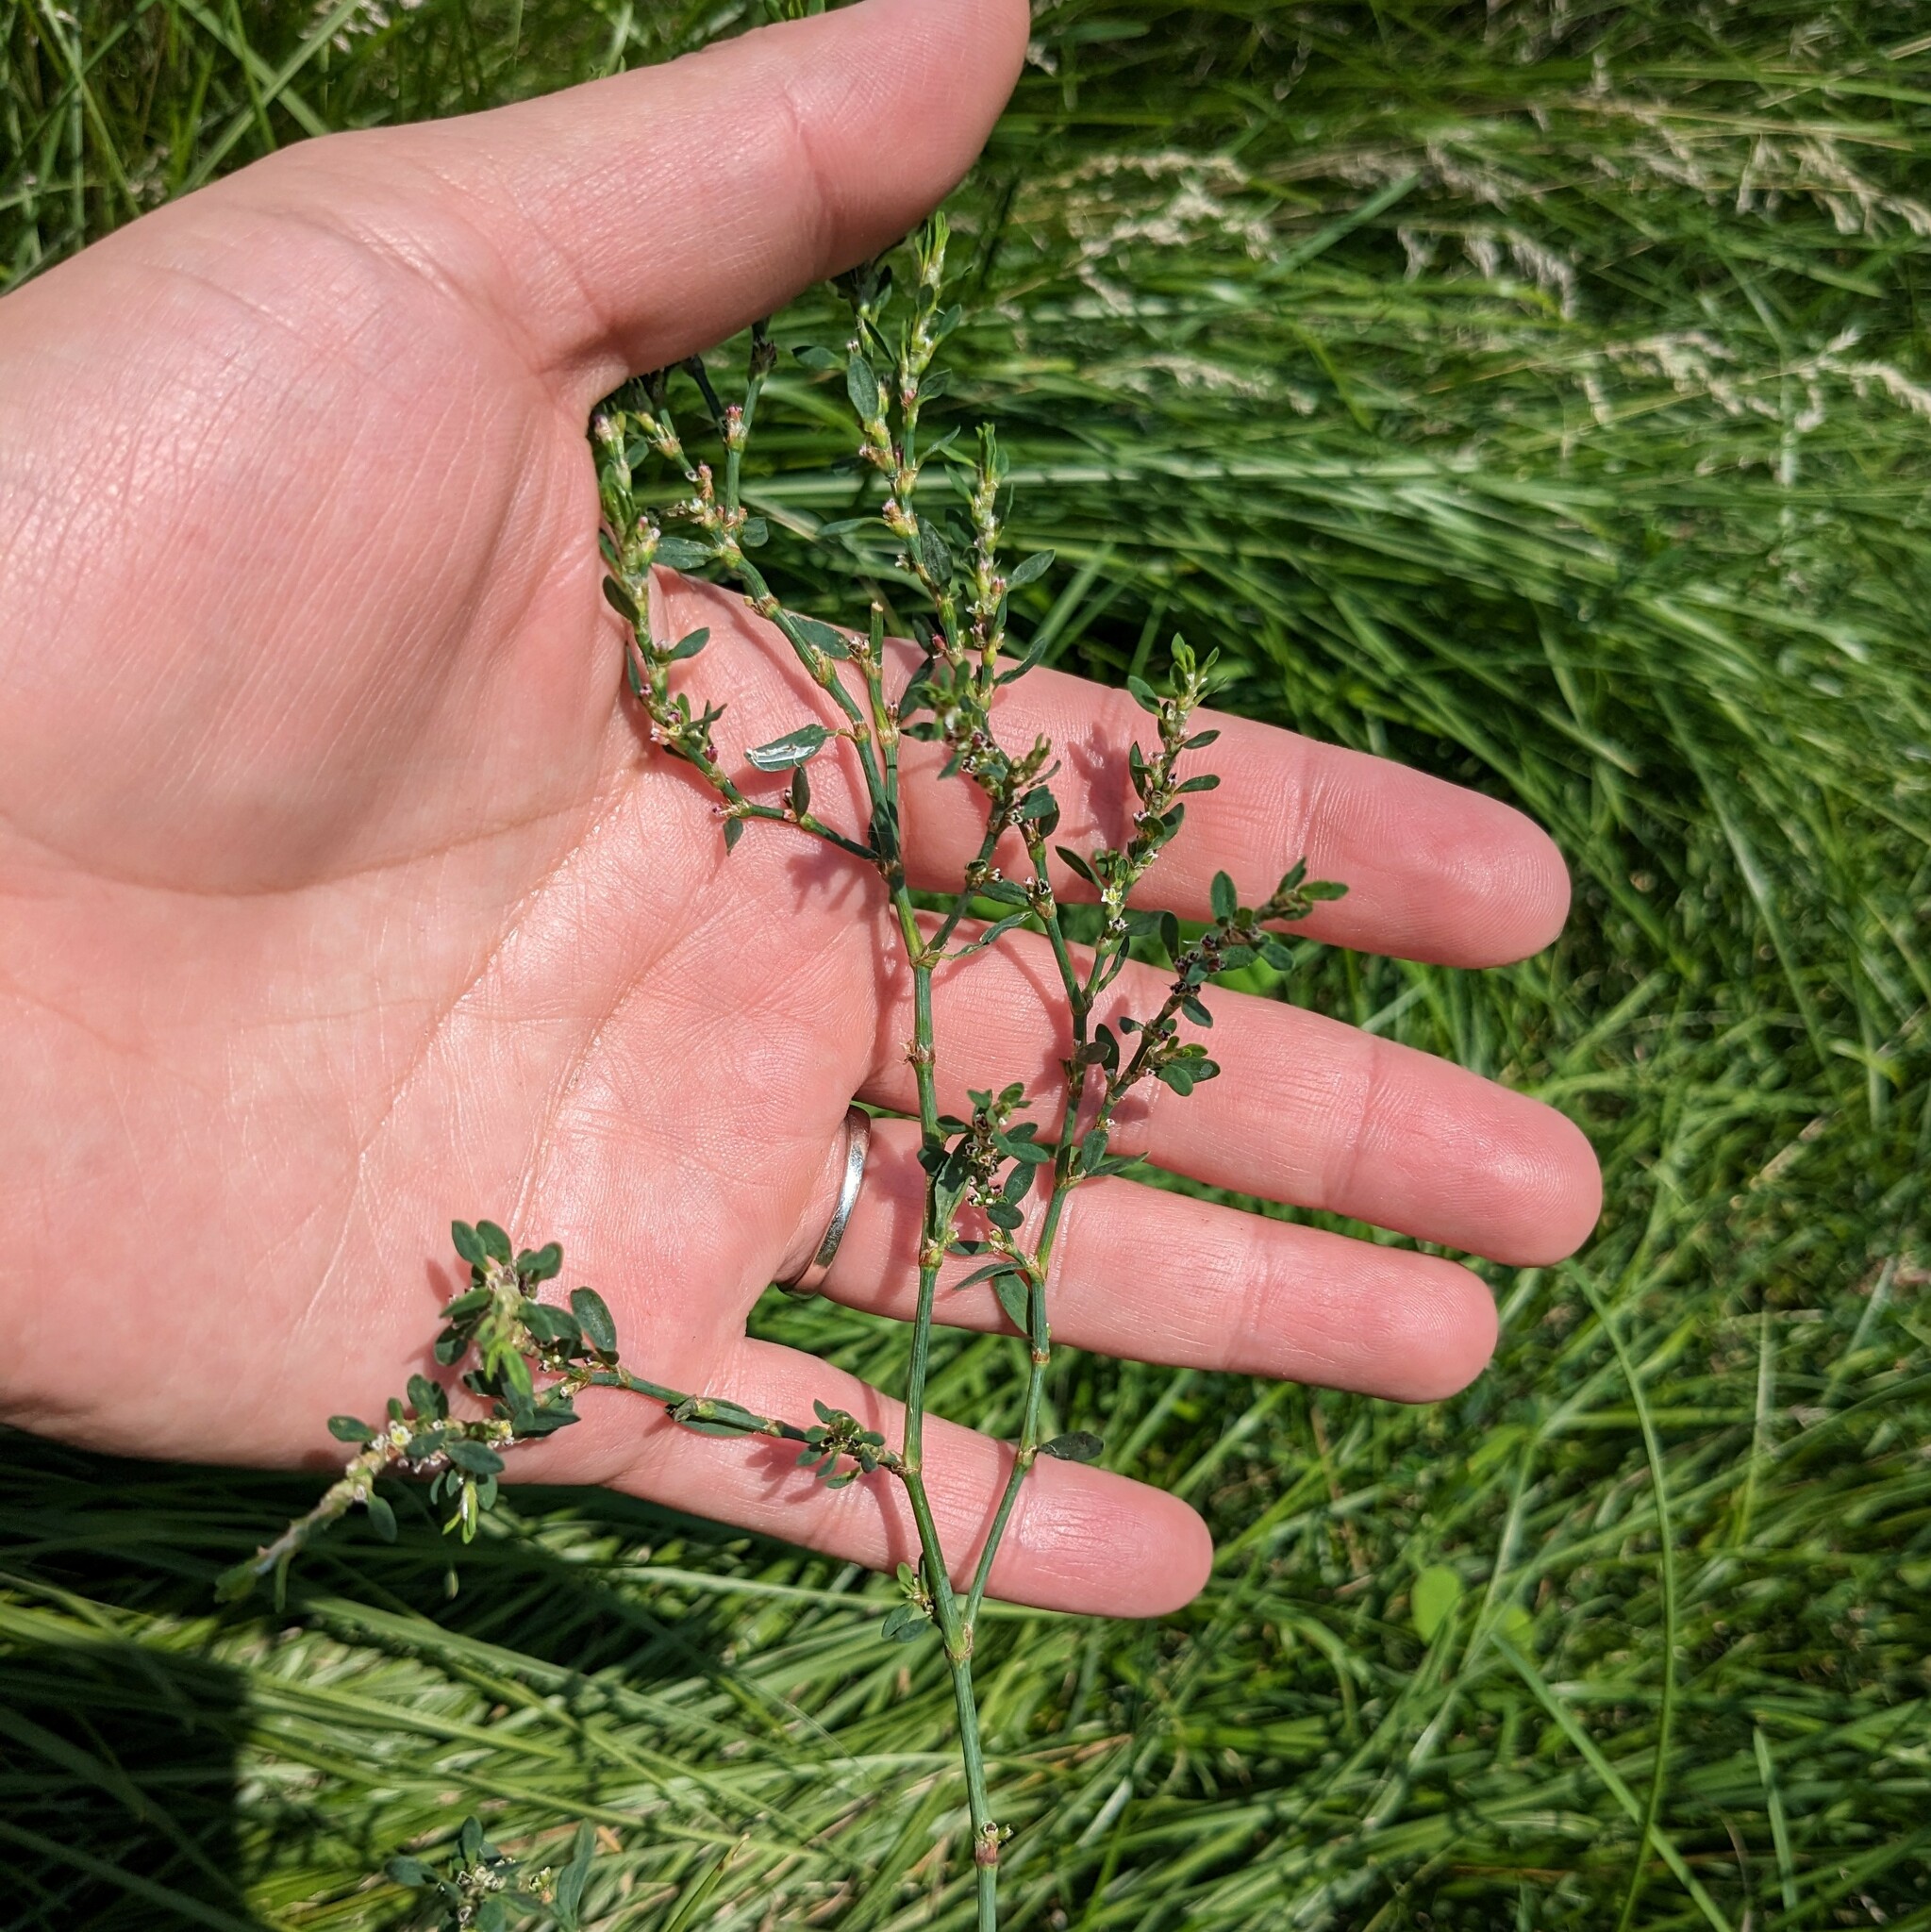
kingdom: Plantae
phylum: Tracheophyta
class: Magnoliopsida
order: Caryophyllales
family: Polygonaceae
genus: Polygonum
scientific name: Polygonum arenastrum
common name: Equal-leaved knotgrass
